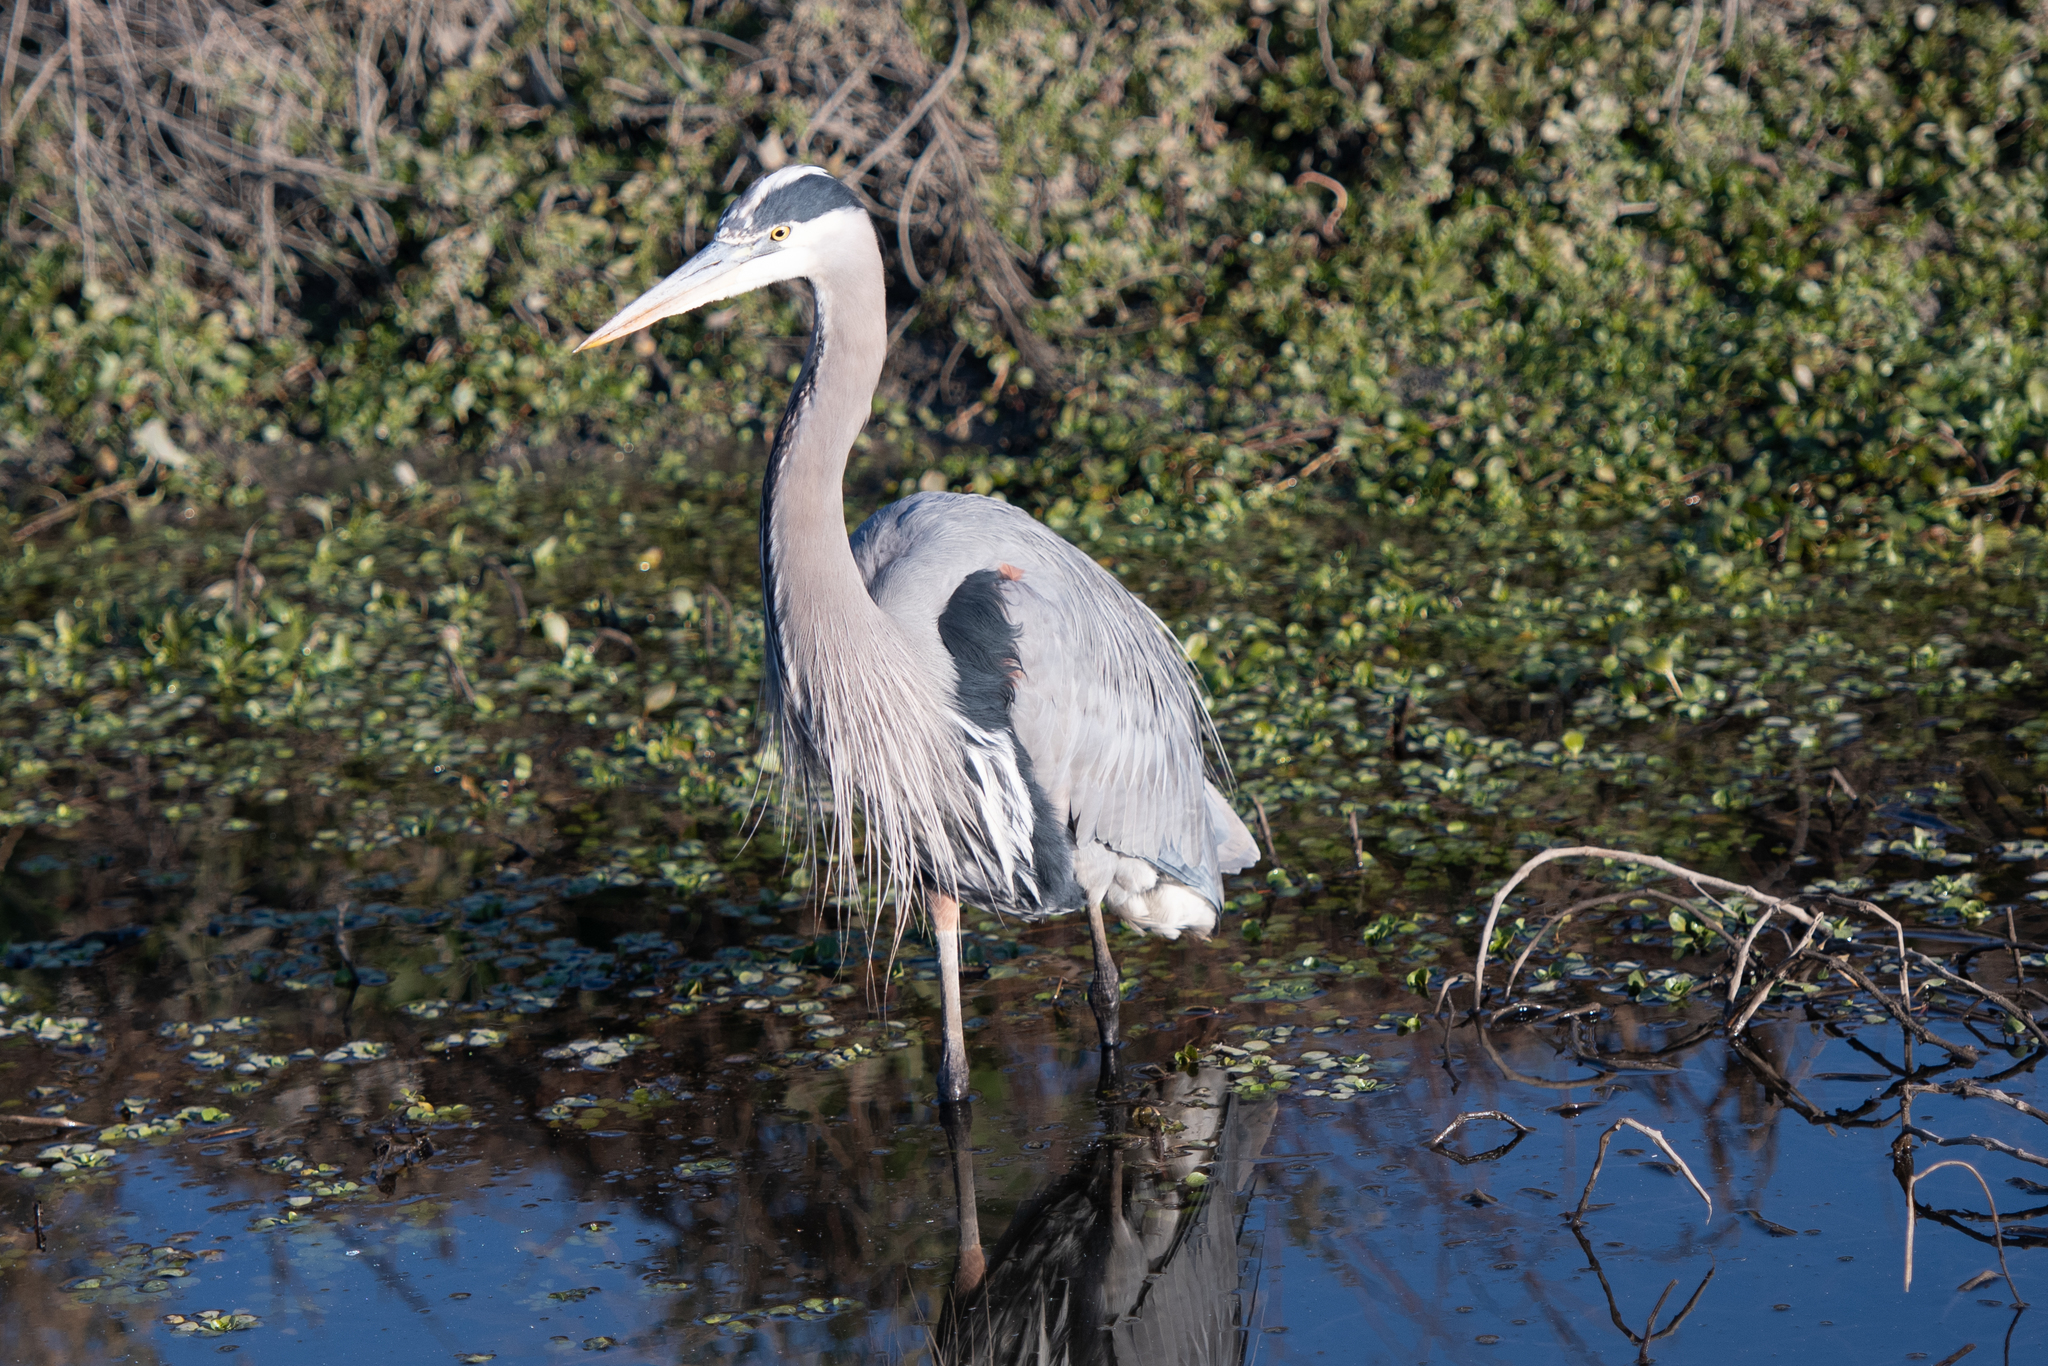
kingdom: Animalia
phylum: Chordata
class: Aves
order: Pelecaniformes
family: Ardeidae
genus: Ardea
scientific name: Ardea herodias
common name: Great blue heron
